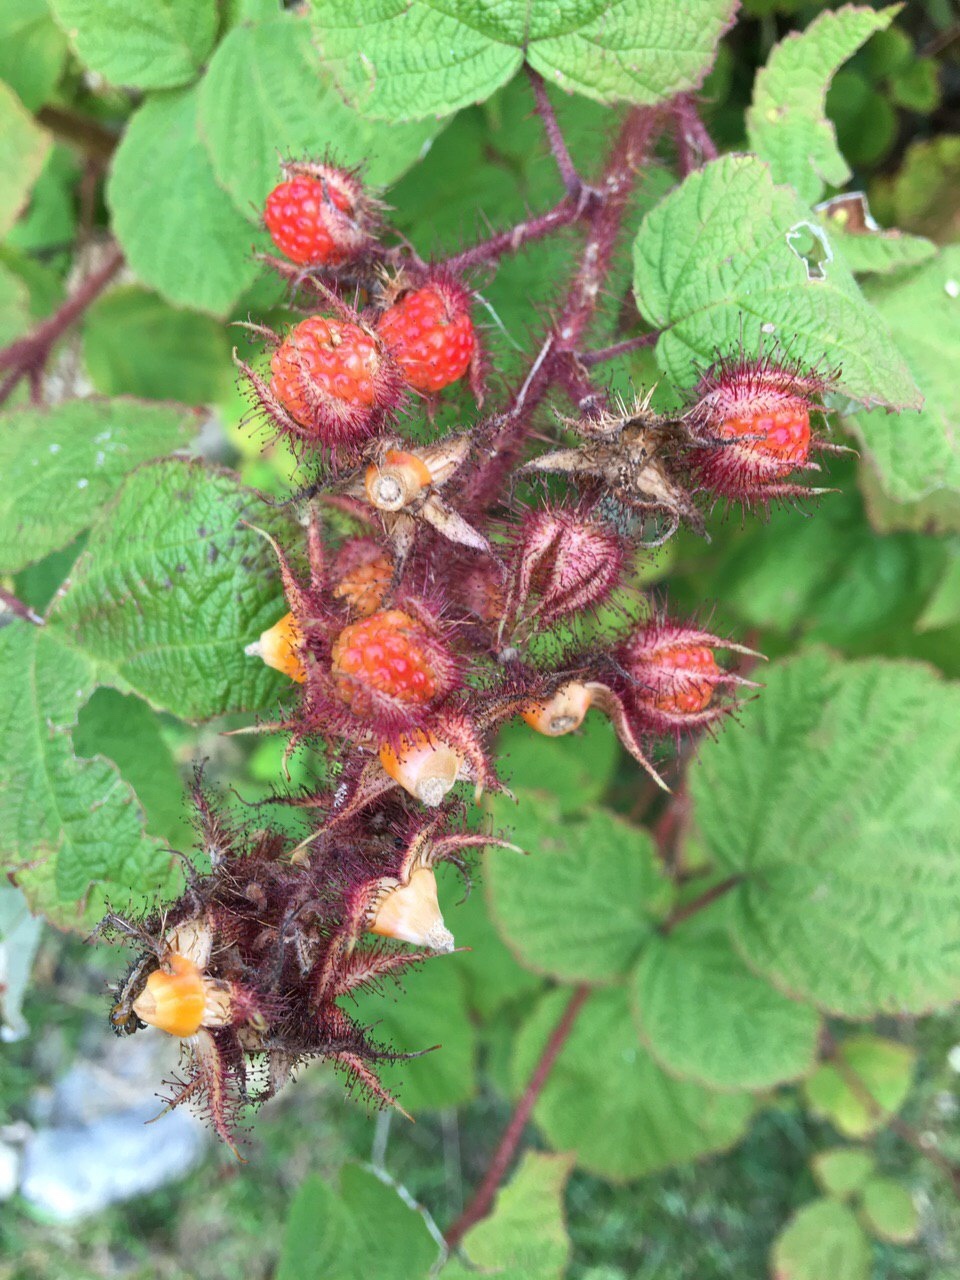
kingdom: Plantae
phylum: Tracheophyta
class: Magnoliopsida
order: Rosales
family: Rosaceae
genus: Rubus
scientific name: Rubus phoenicolasius
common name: Japanese wineberry
